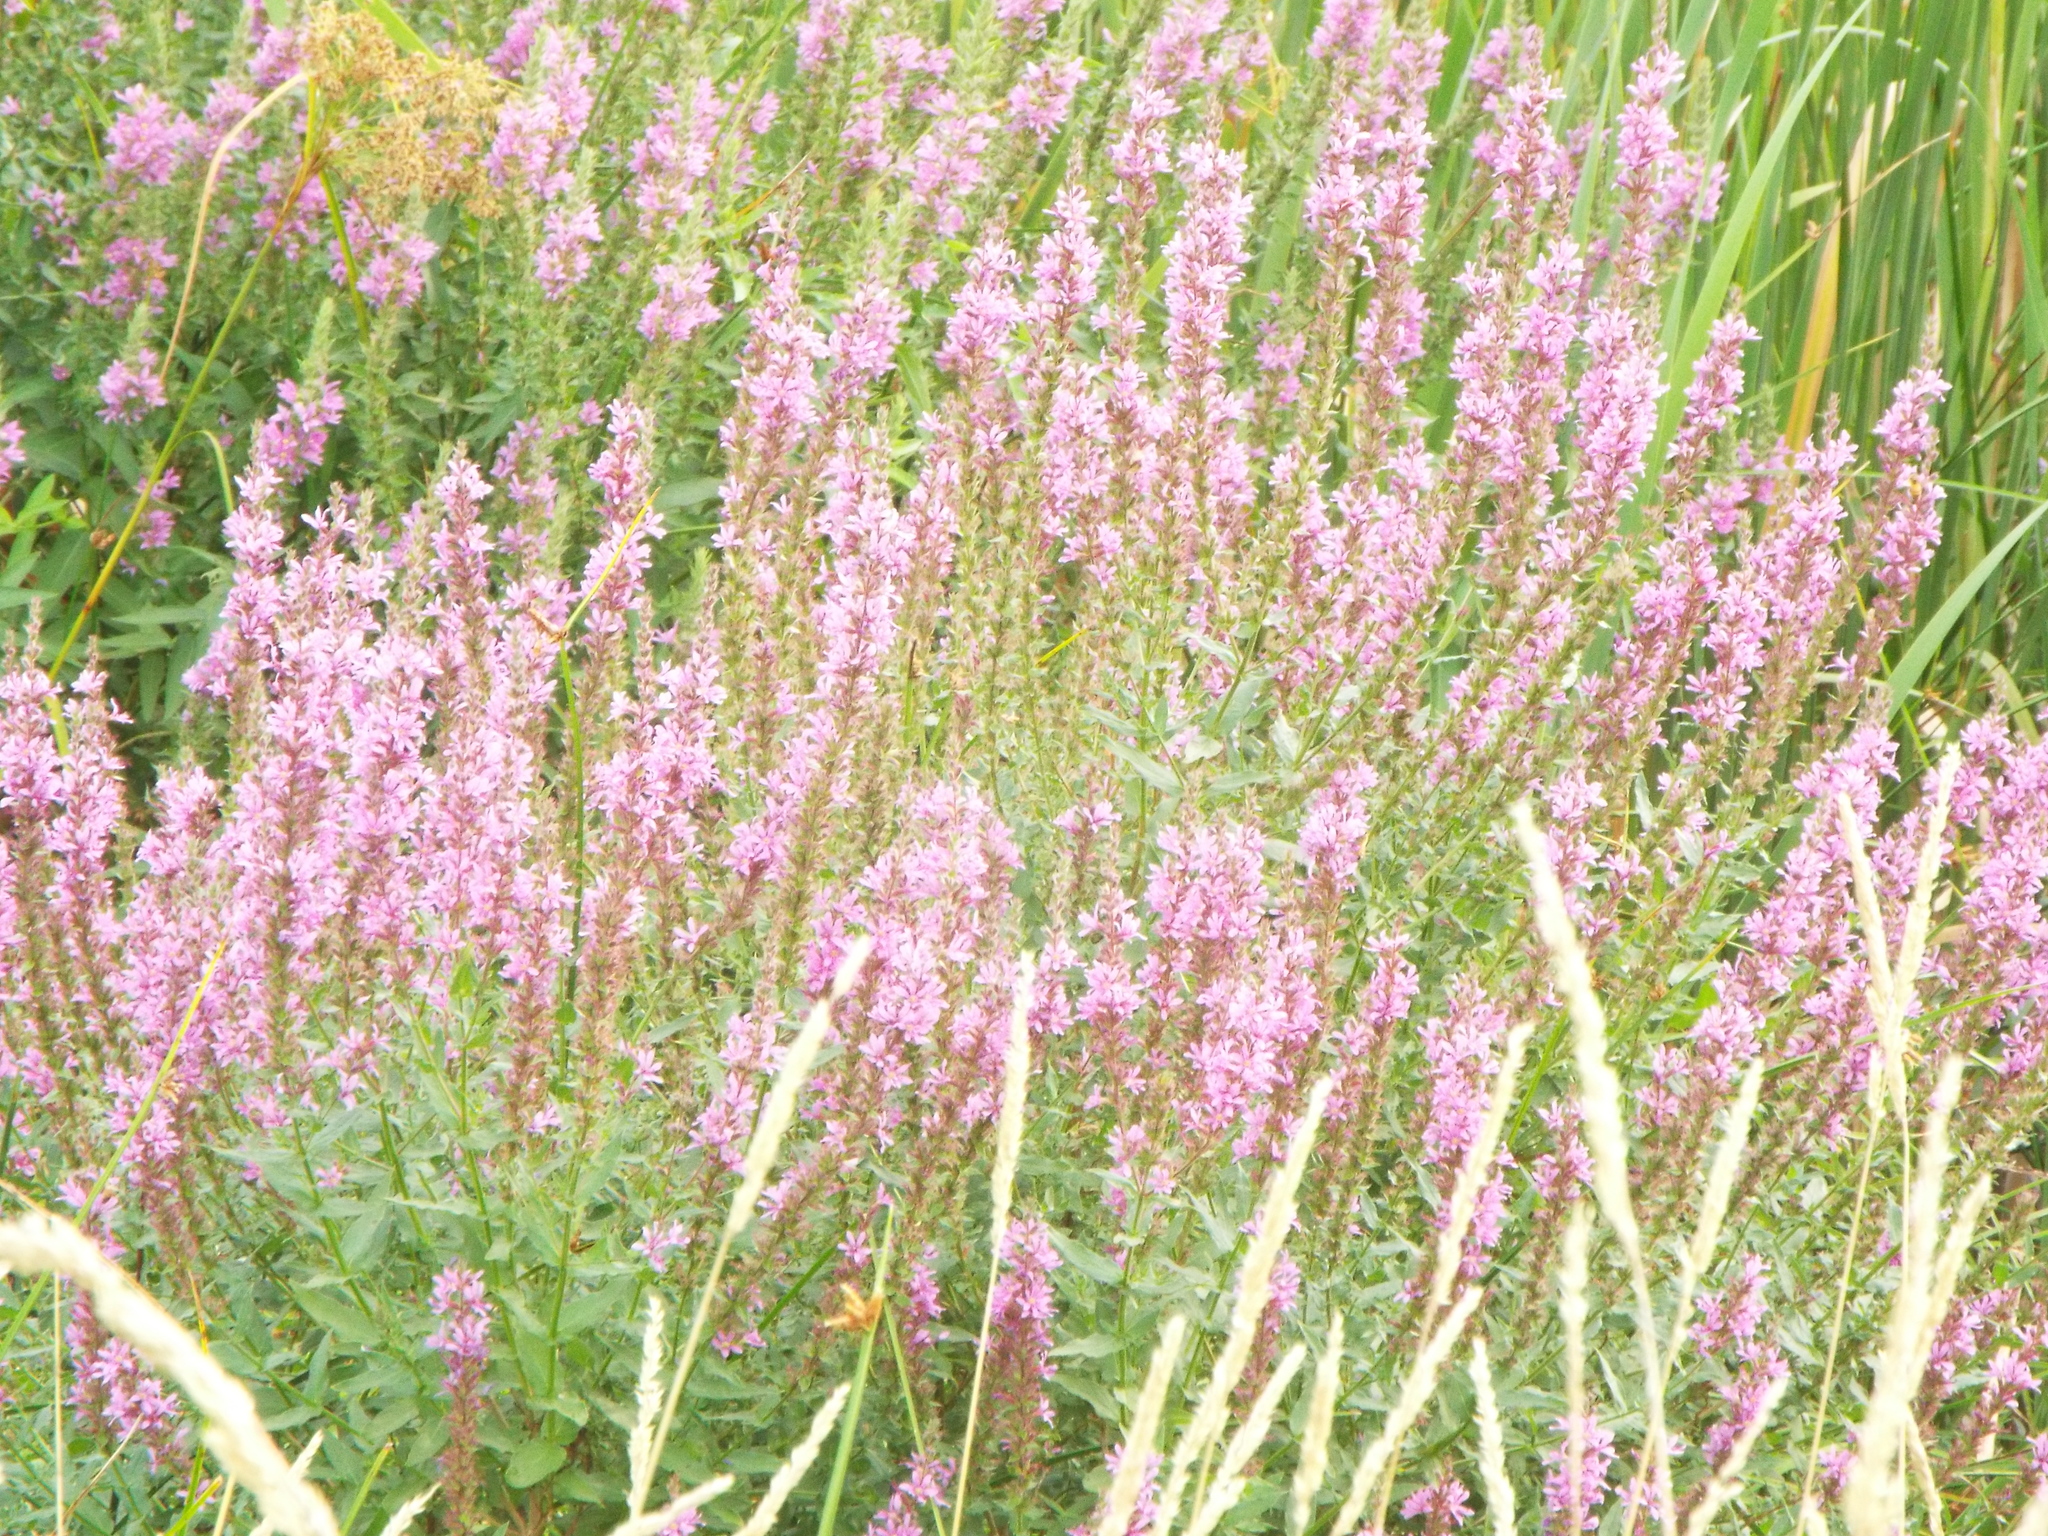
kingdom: Plantae
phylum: Tracheophyta
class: Magnoliopsida
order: Myrtales
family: Lythraceae
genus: Lythrum
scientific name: Lythrum salicaria
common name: Purple loosestrife
